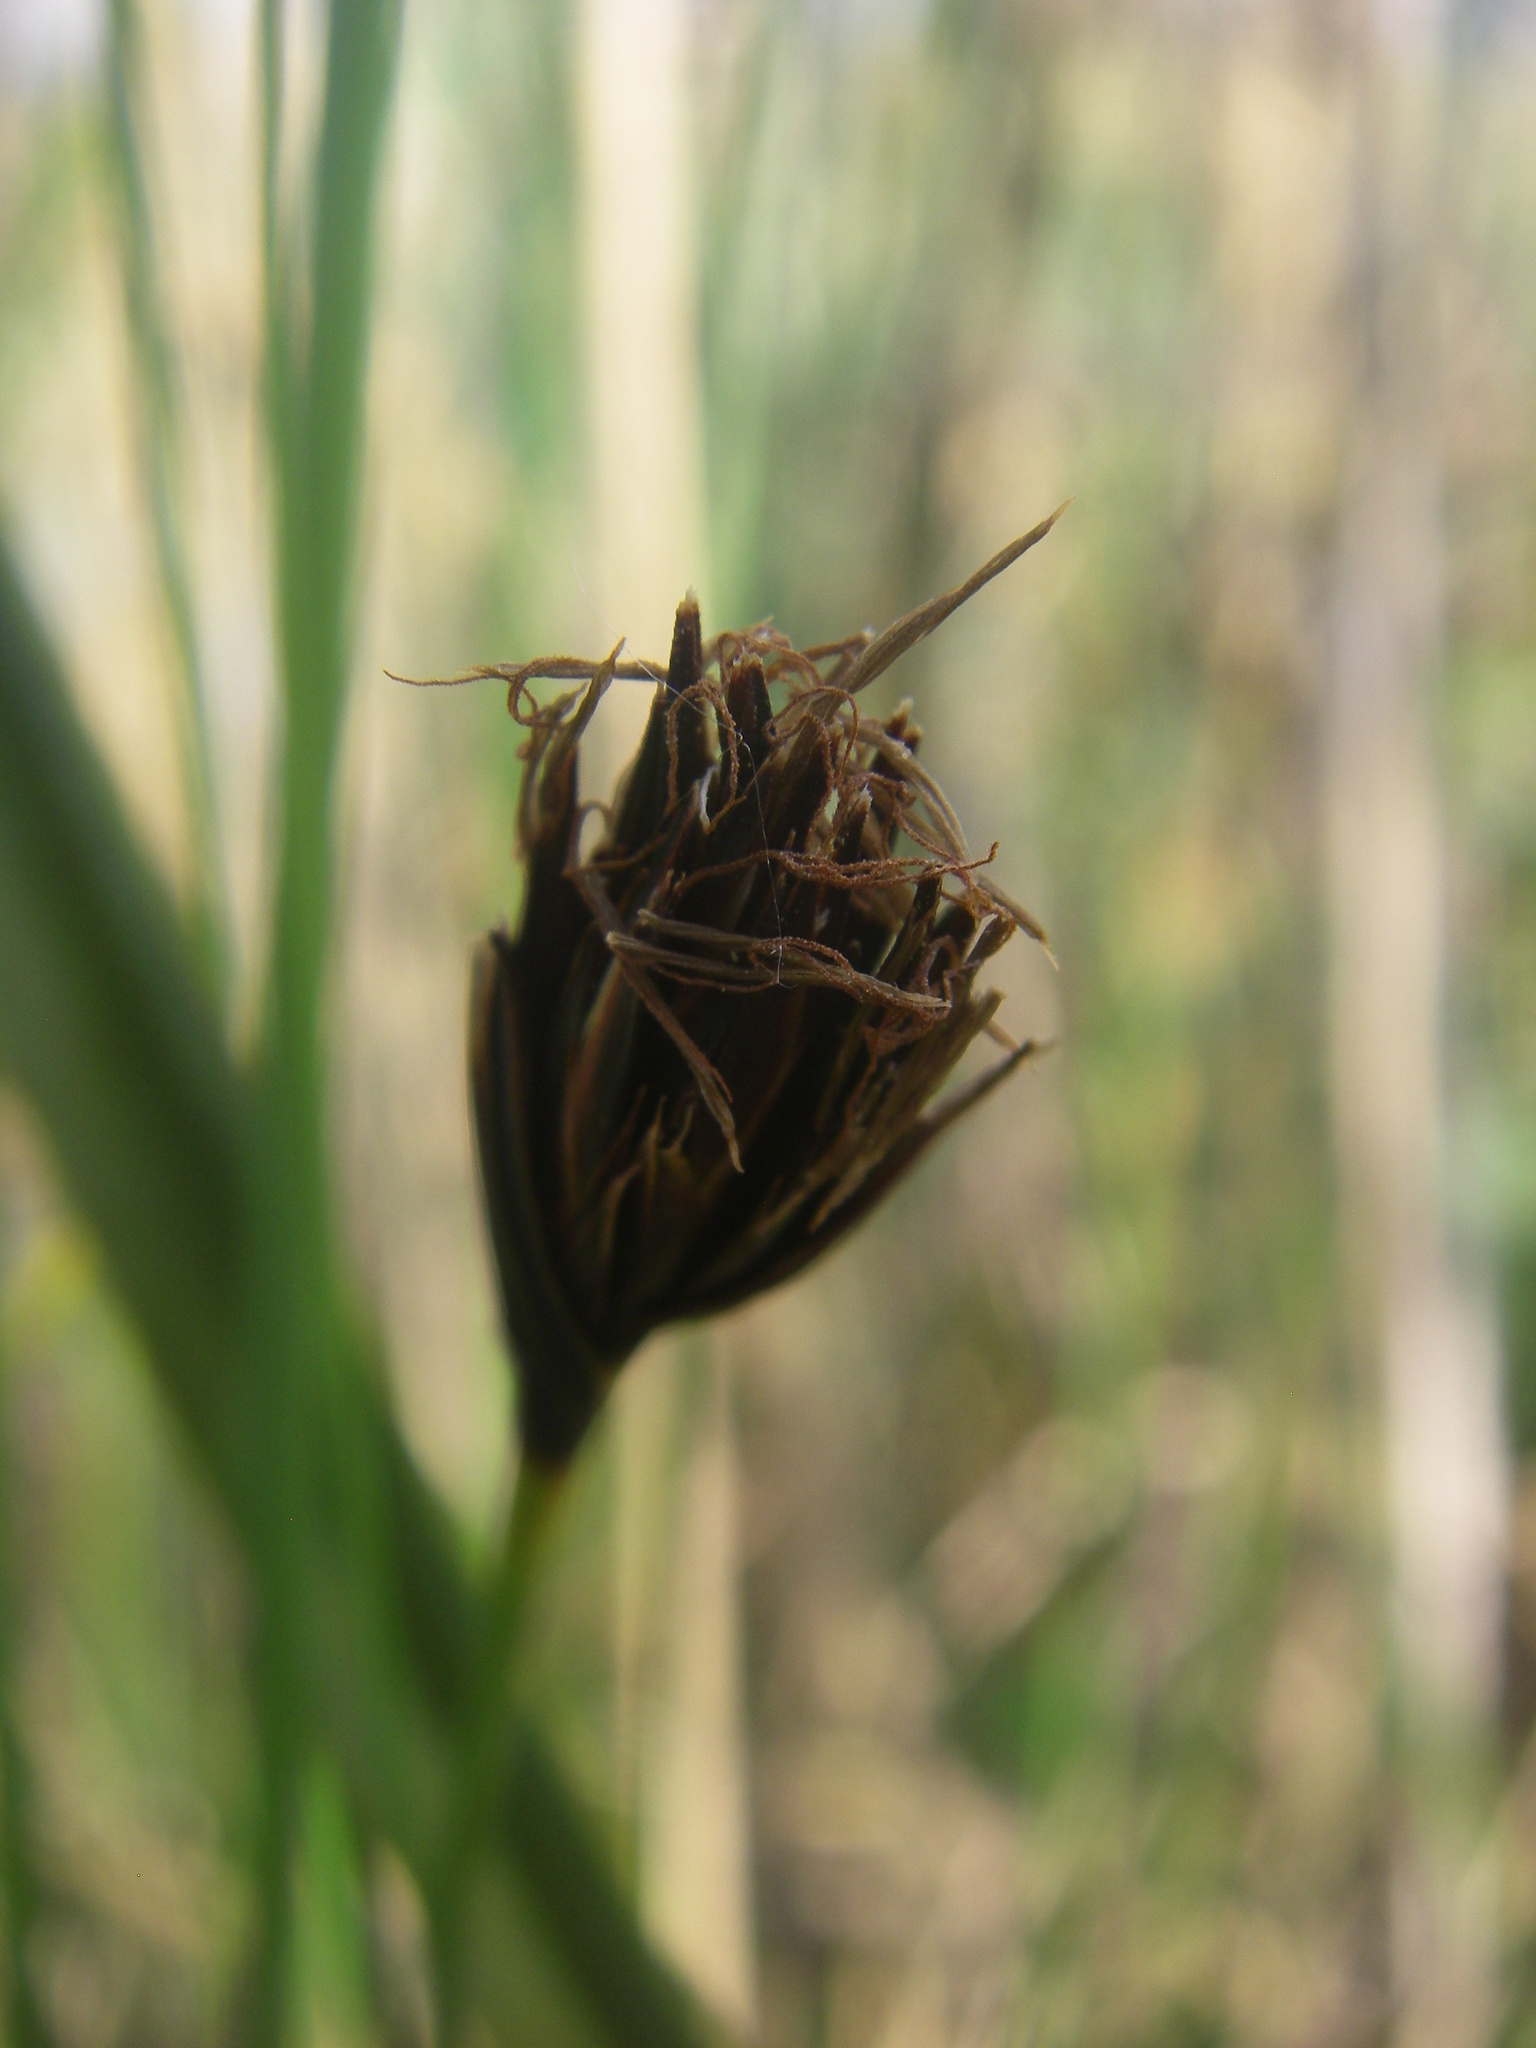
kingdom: Plantae
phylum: Tracheophyta
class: Liliopsida
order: Poales
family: Cyperaceae
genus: Schoenus
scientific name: Schoenus nigricans
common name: Black bog-rush
